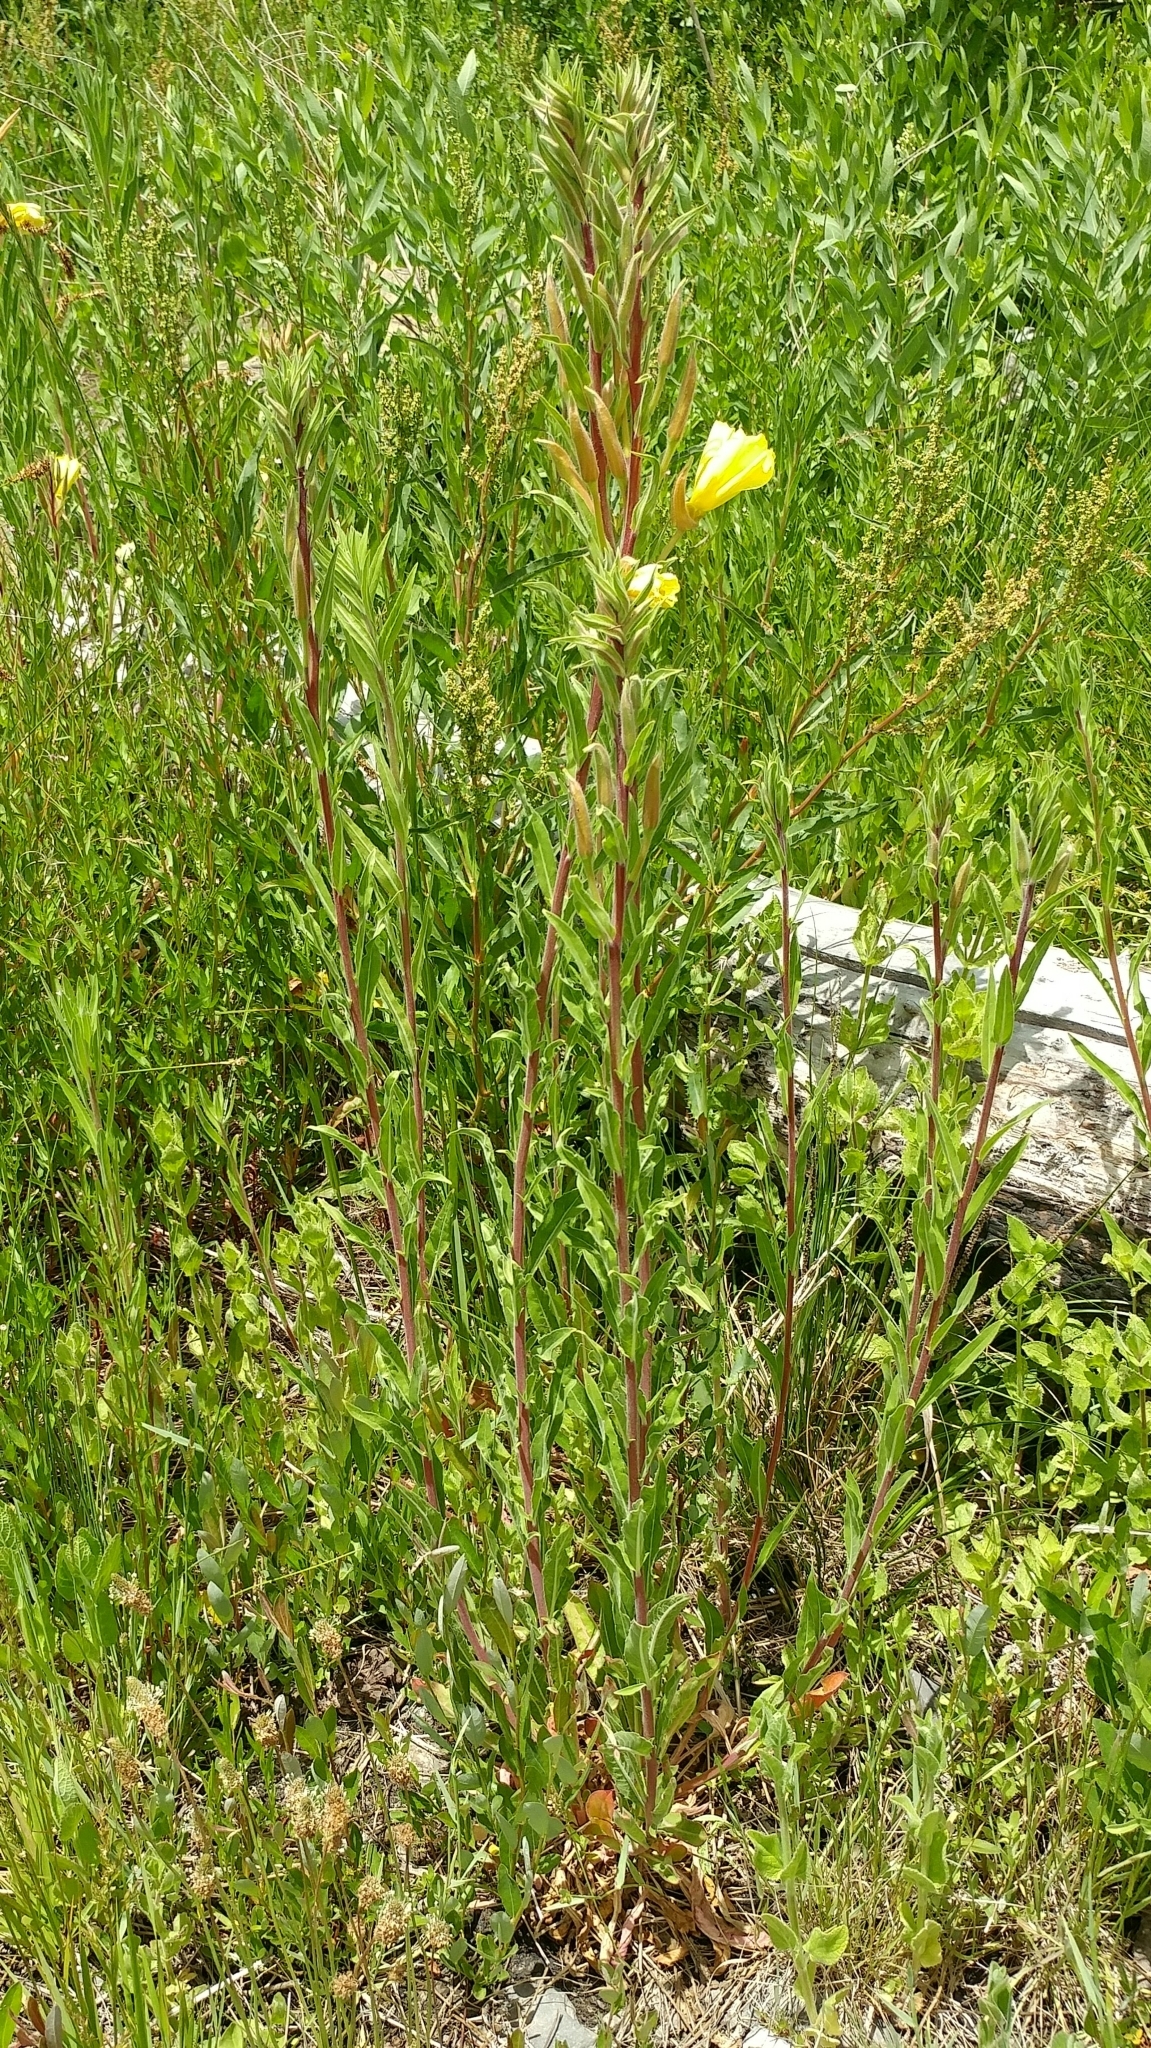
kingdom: Plantae
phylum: Tracheophyta
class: Magnoliopsida
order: Myrtales
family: Onagraceae
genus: Oenothera
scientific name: Oenothera elata
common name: Hooker's evening-primrose
